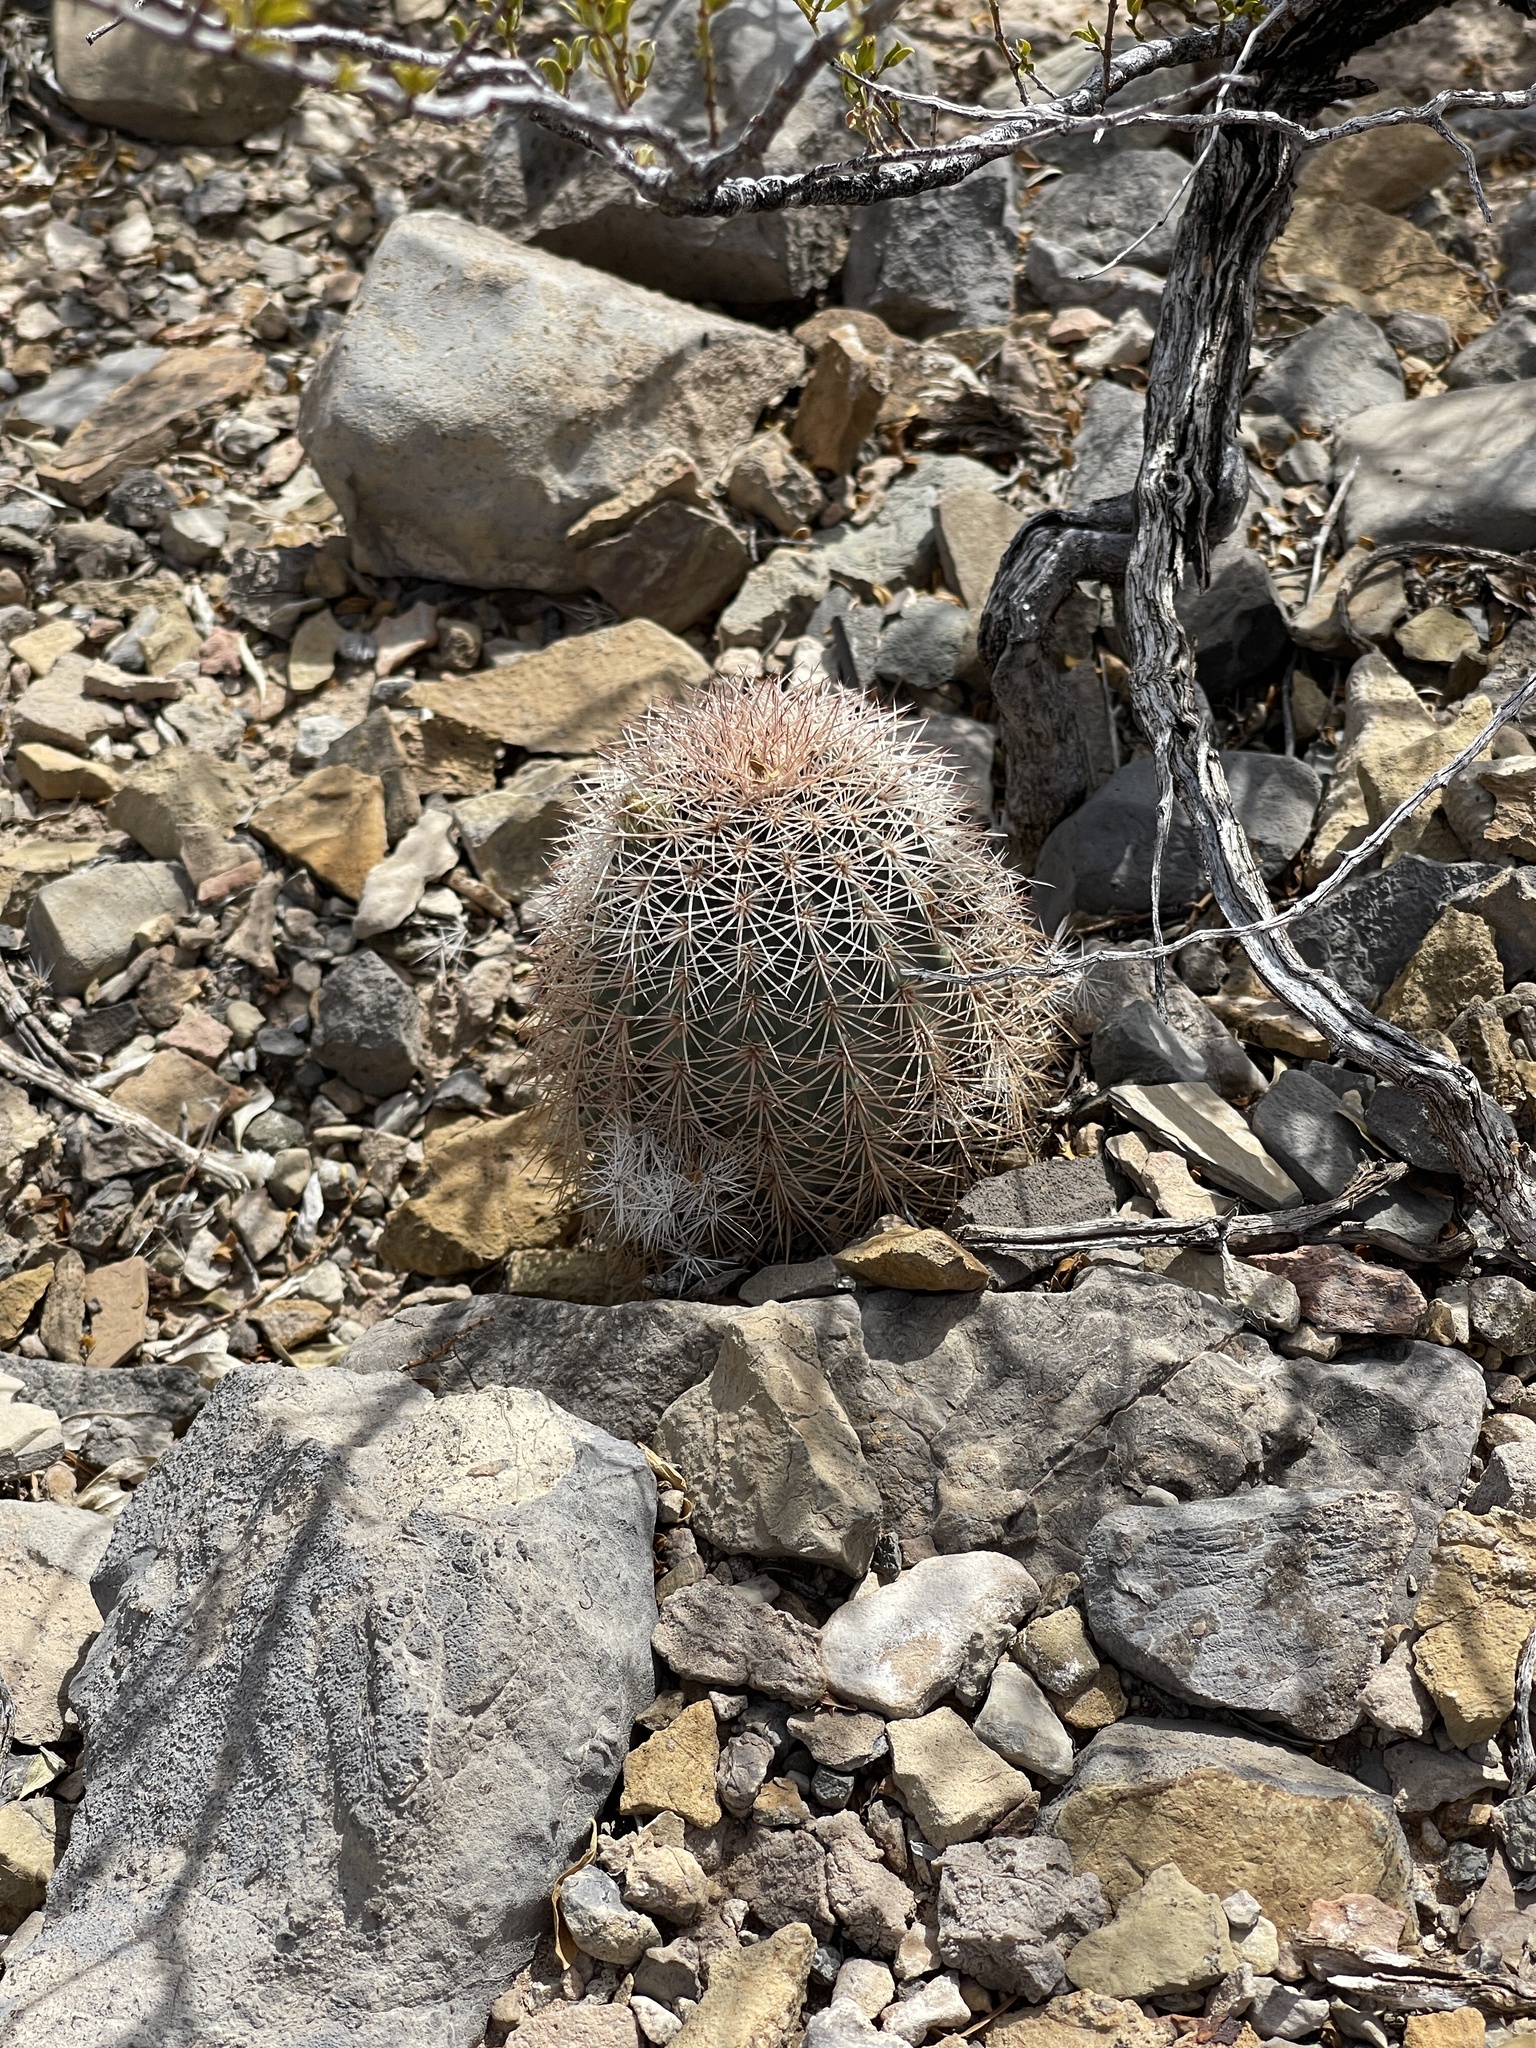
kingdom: Plantae
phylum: Tracheophyta
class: Magnoliopsida
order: Caryophyllales
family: Cactaceae
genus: Echinocereus
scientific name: Echinocereus dasyacanthus
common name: Spiny hedgehog cactus
